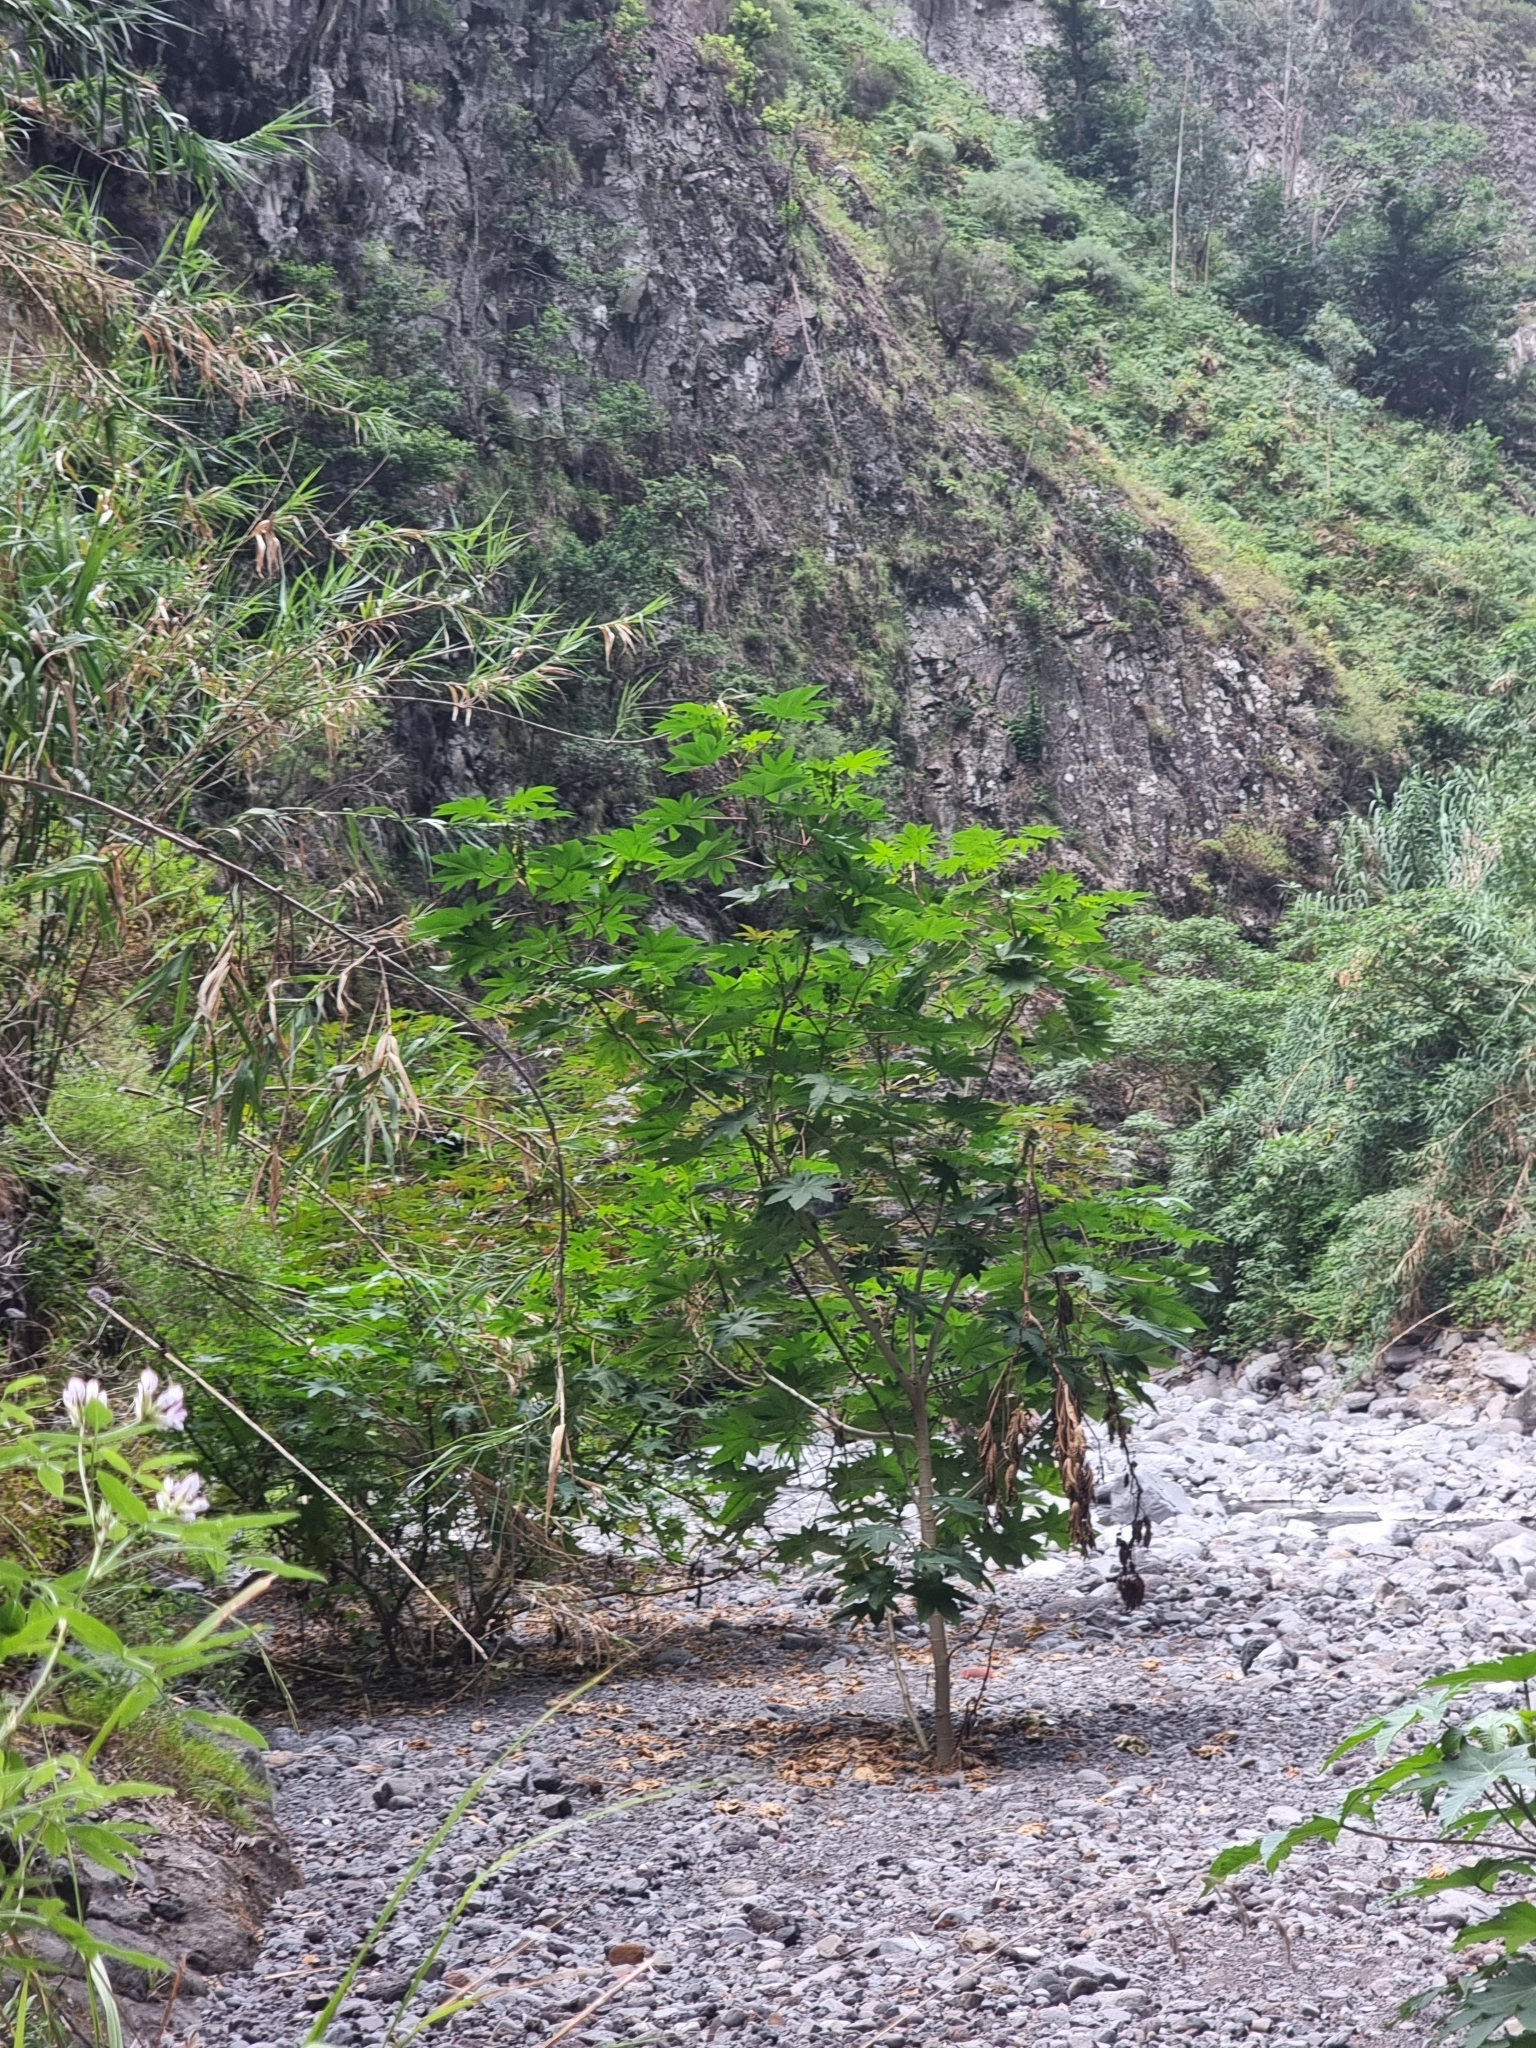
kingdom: Plantae
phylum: Tracheophyta
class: Magnoliopsida
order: Malpighiales
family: Euphorbiaceae
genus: Ricinus
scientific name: Ricinus communis
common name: Castor-oil-plant
